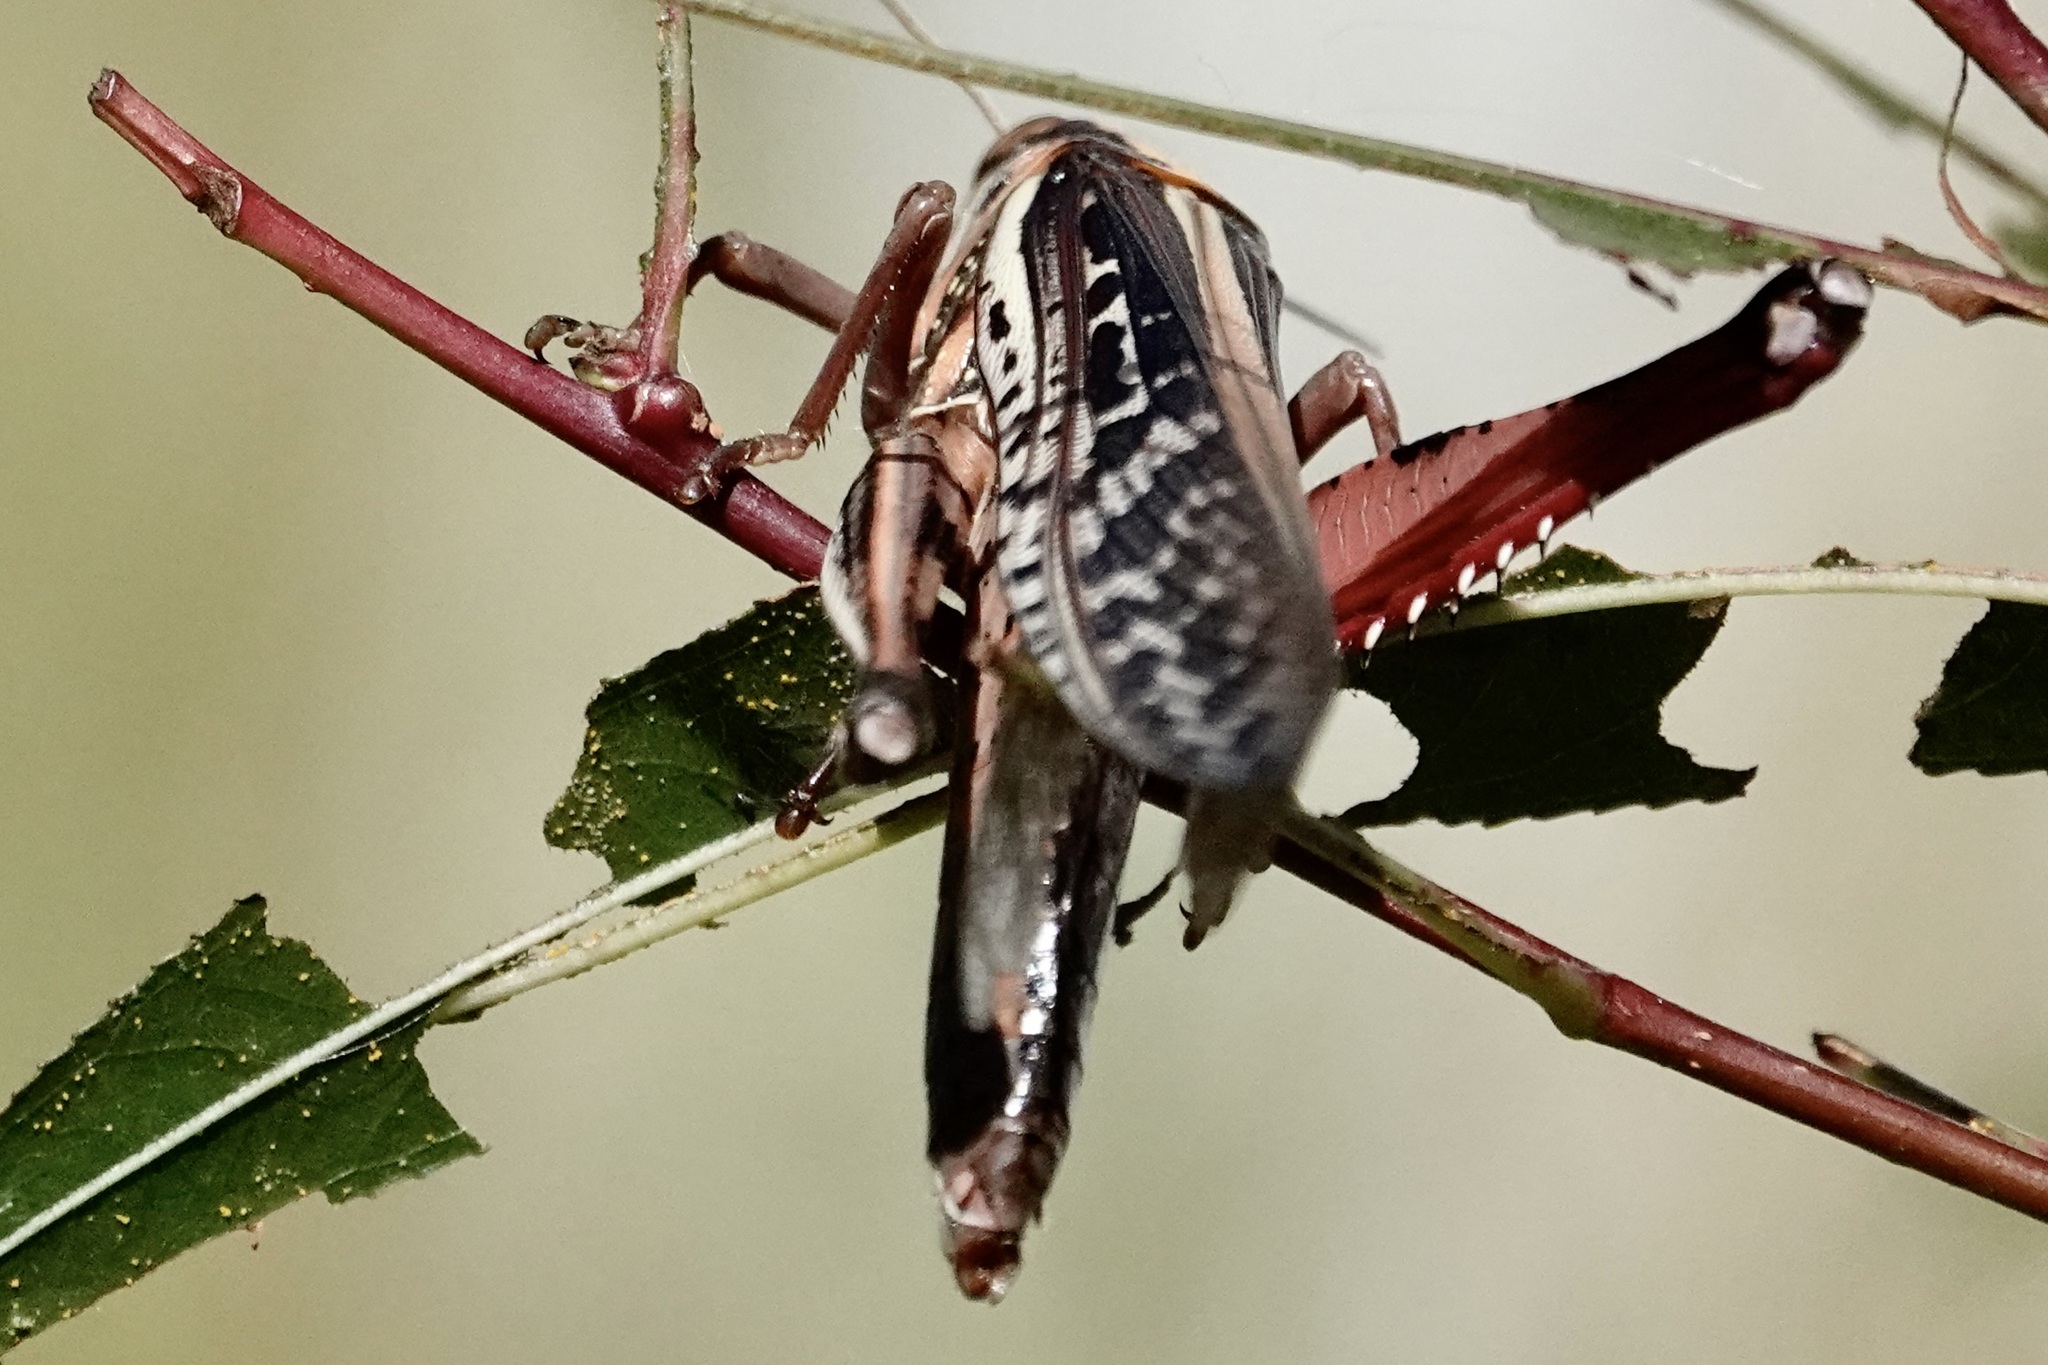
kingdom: Animalia
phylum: Arthropoda
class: Insecta
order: Orthoptera
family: Acrididae
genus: Schistocerca
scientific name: Schistocerca americana
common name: American bird locust
